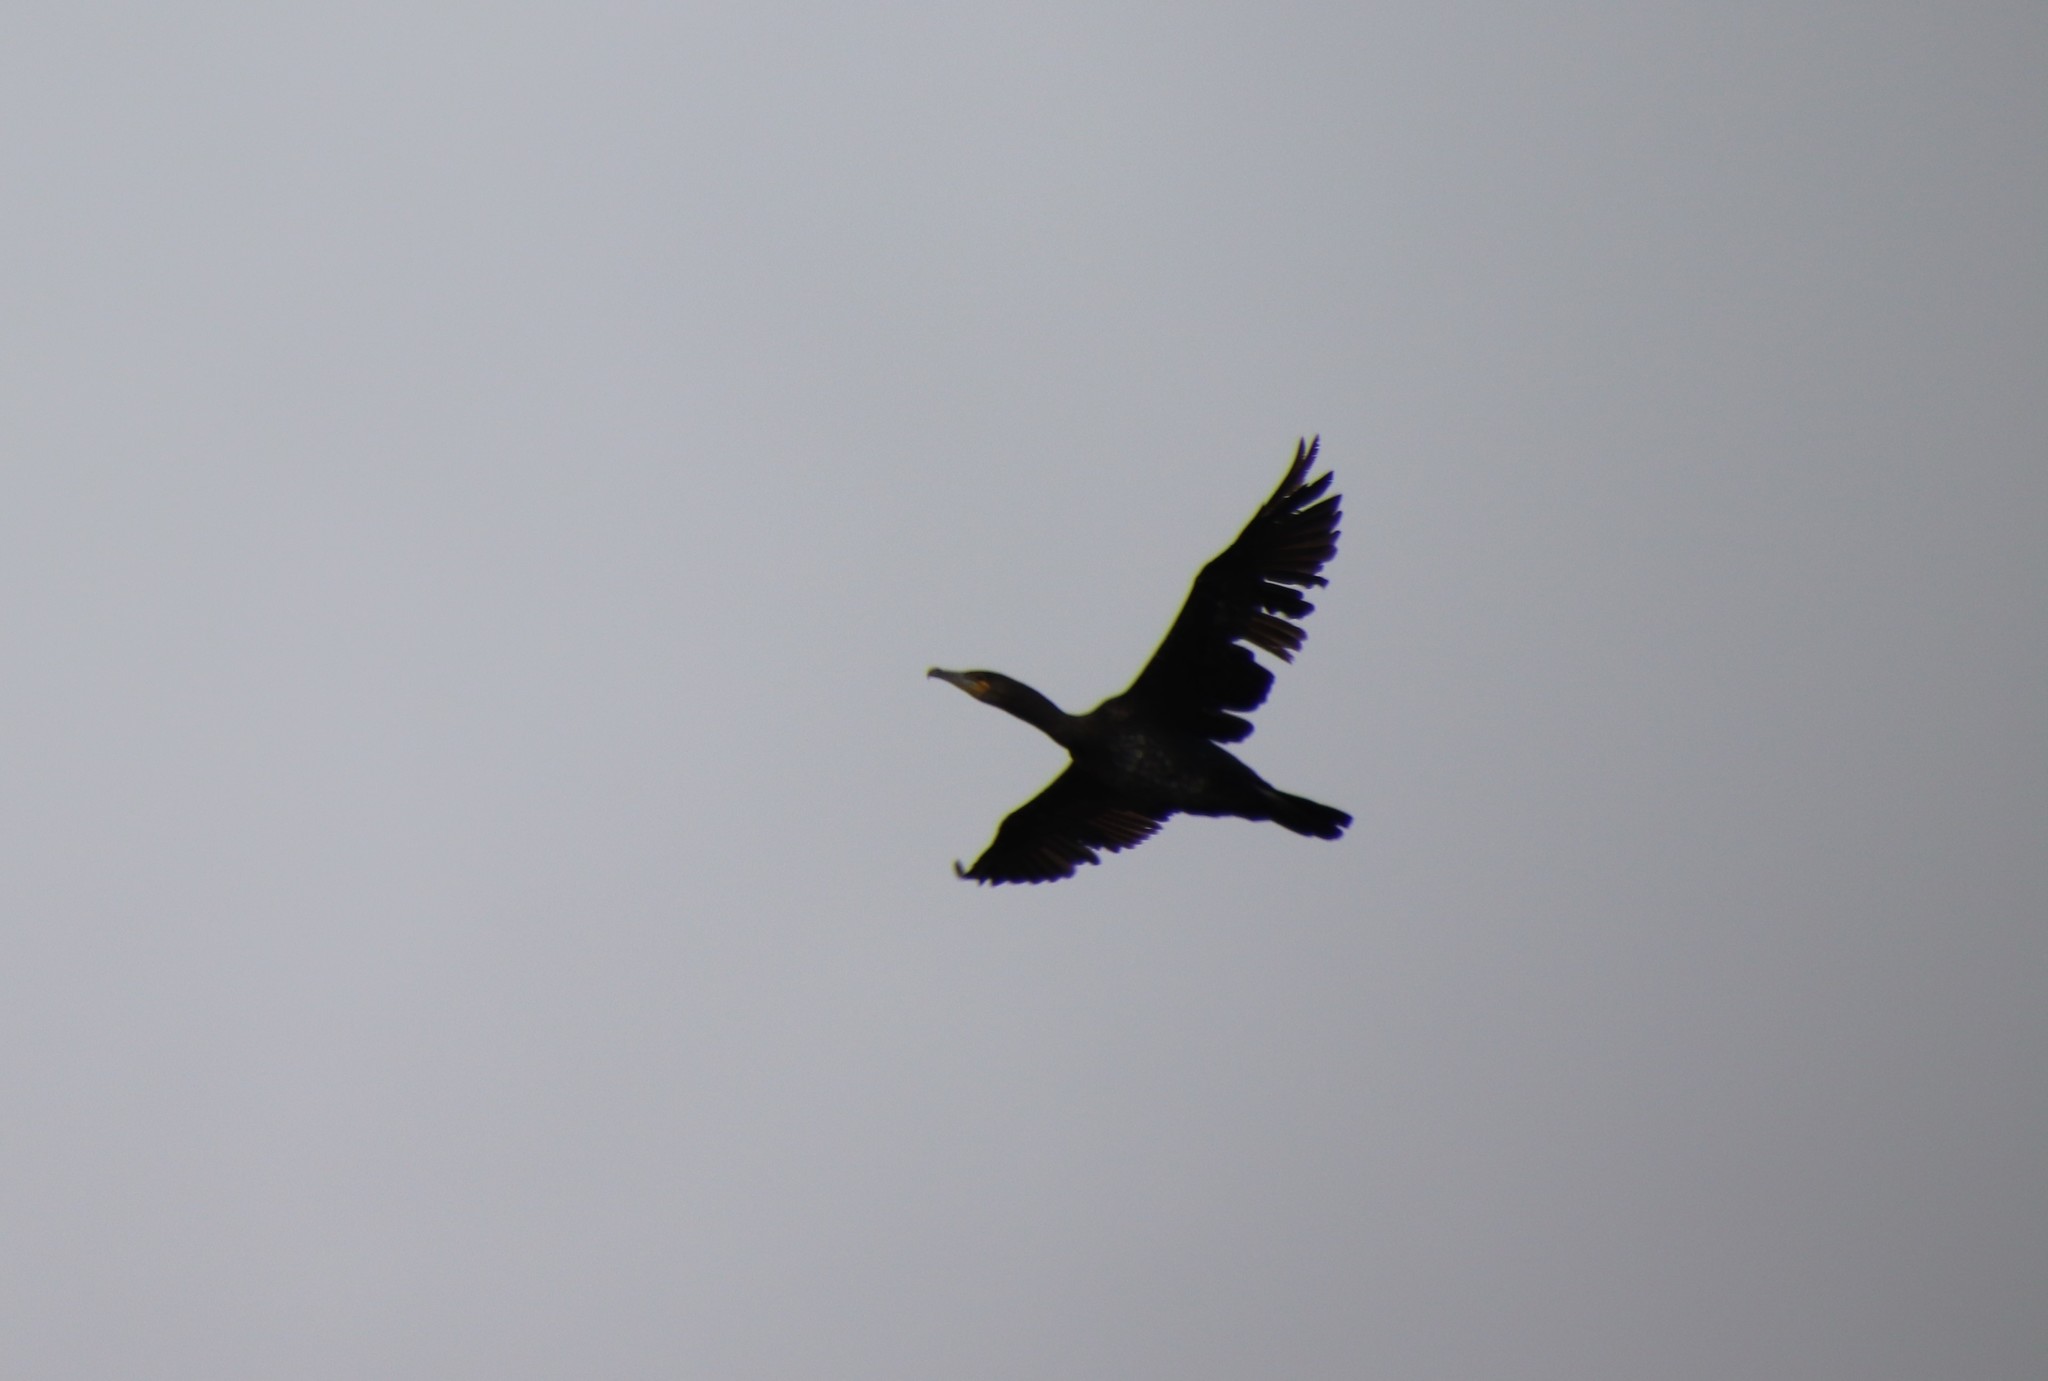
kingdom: Animalia
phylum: Chordata
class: Aves
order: Suliformes
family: Phalacrocoracidae
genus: Phalacrocorax
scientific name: Phalacrocorax carbo
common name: Great cormorant
